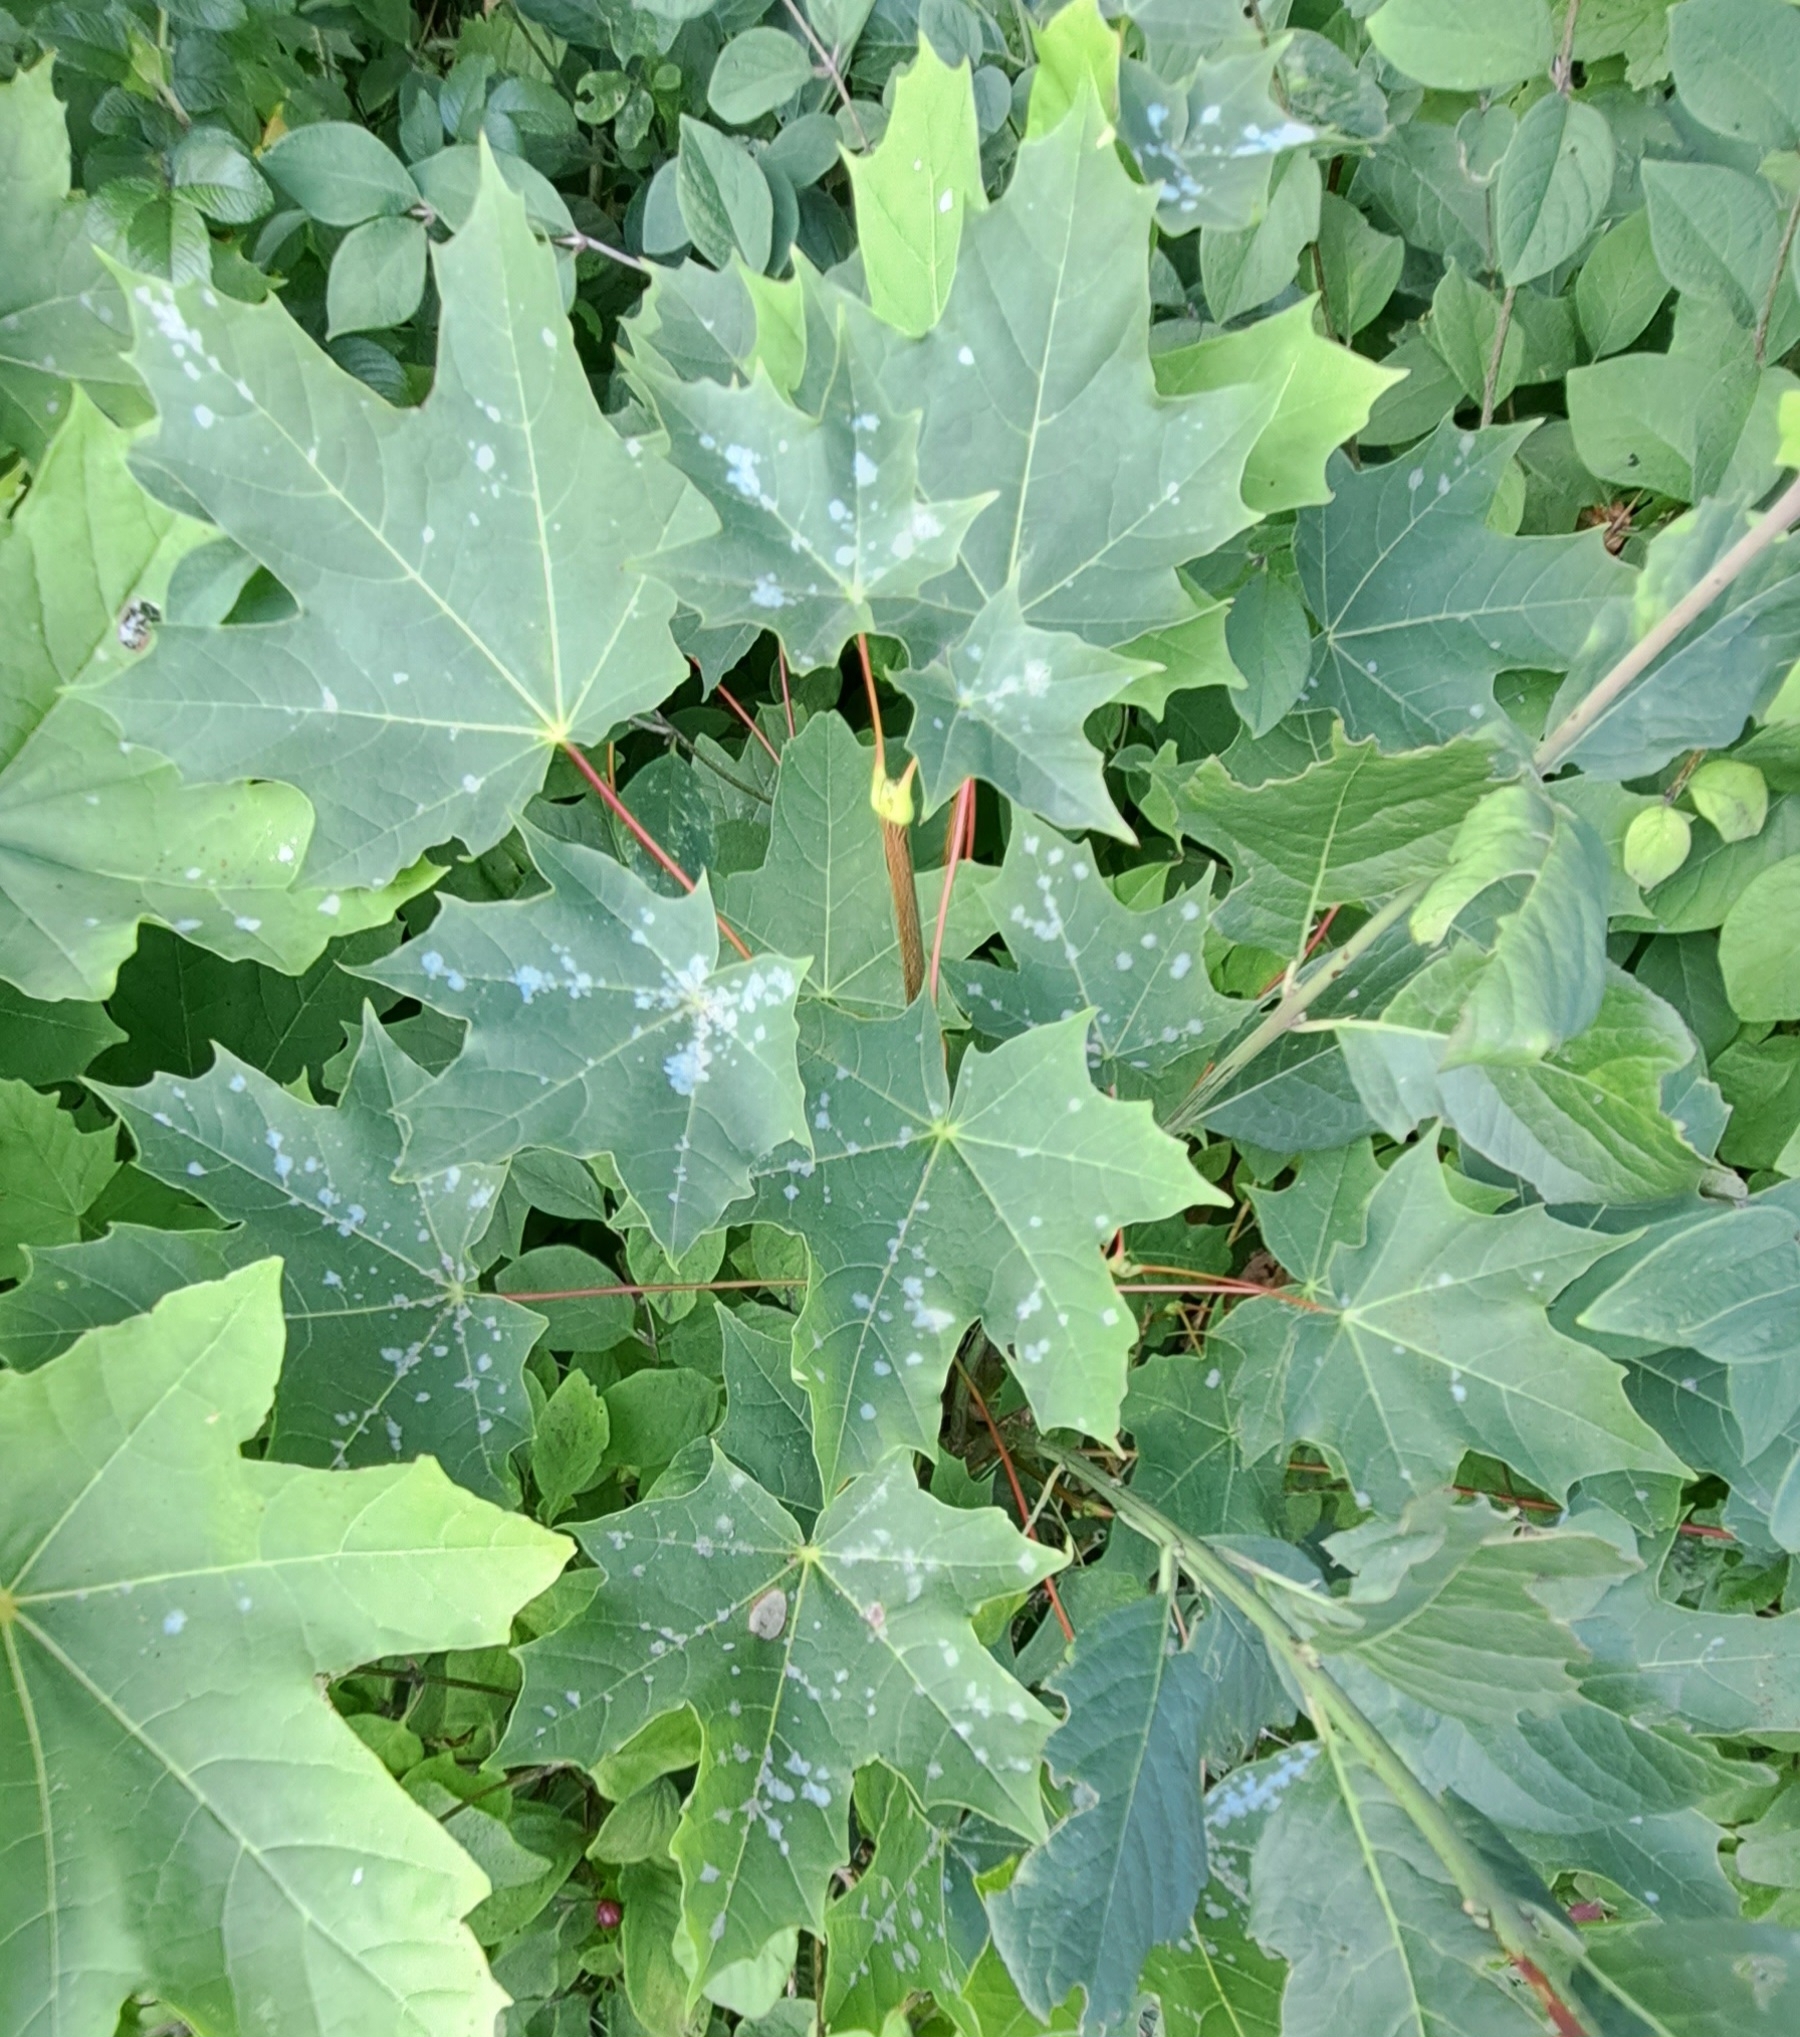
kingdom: Plantae
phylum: Tracheophyta
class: Magnoliopsida
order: Sapindales
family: Sapindaceae
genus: Acer
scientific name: Acer platanoides
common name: Norway maple
